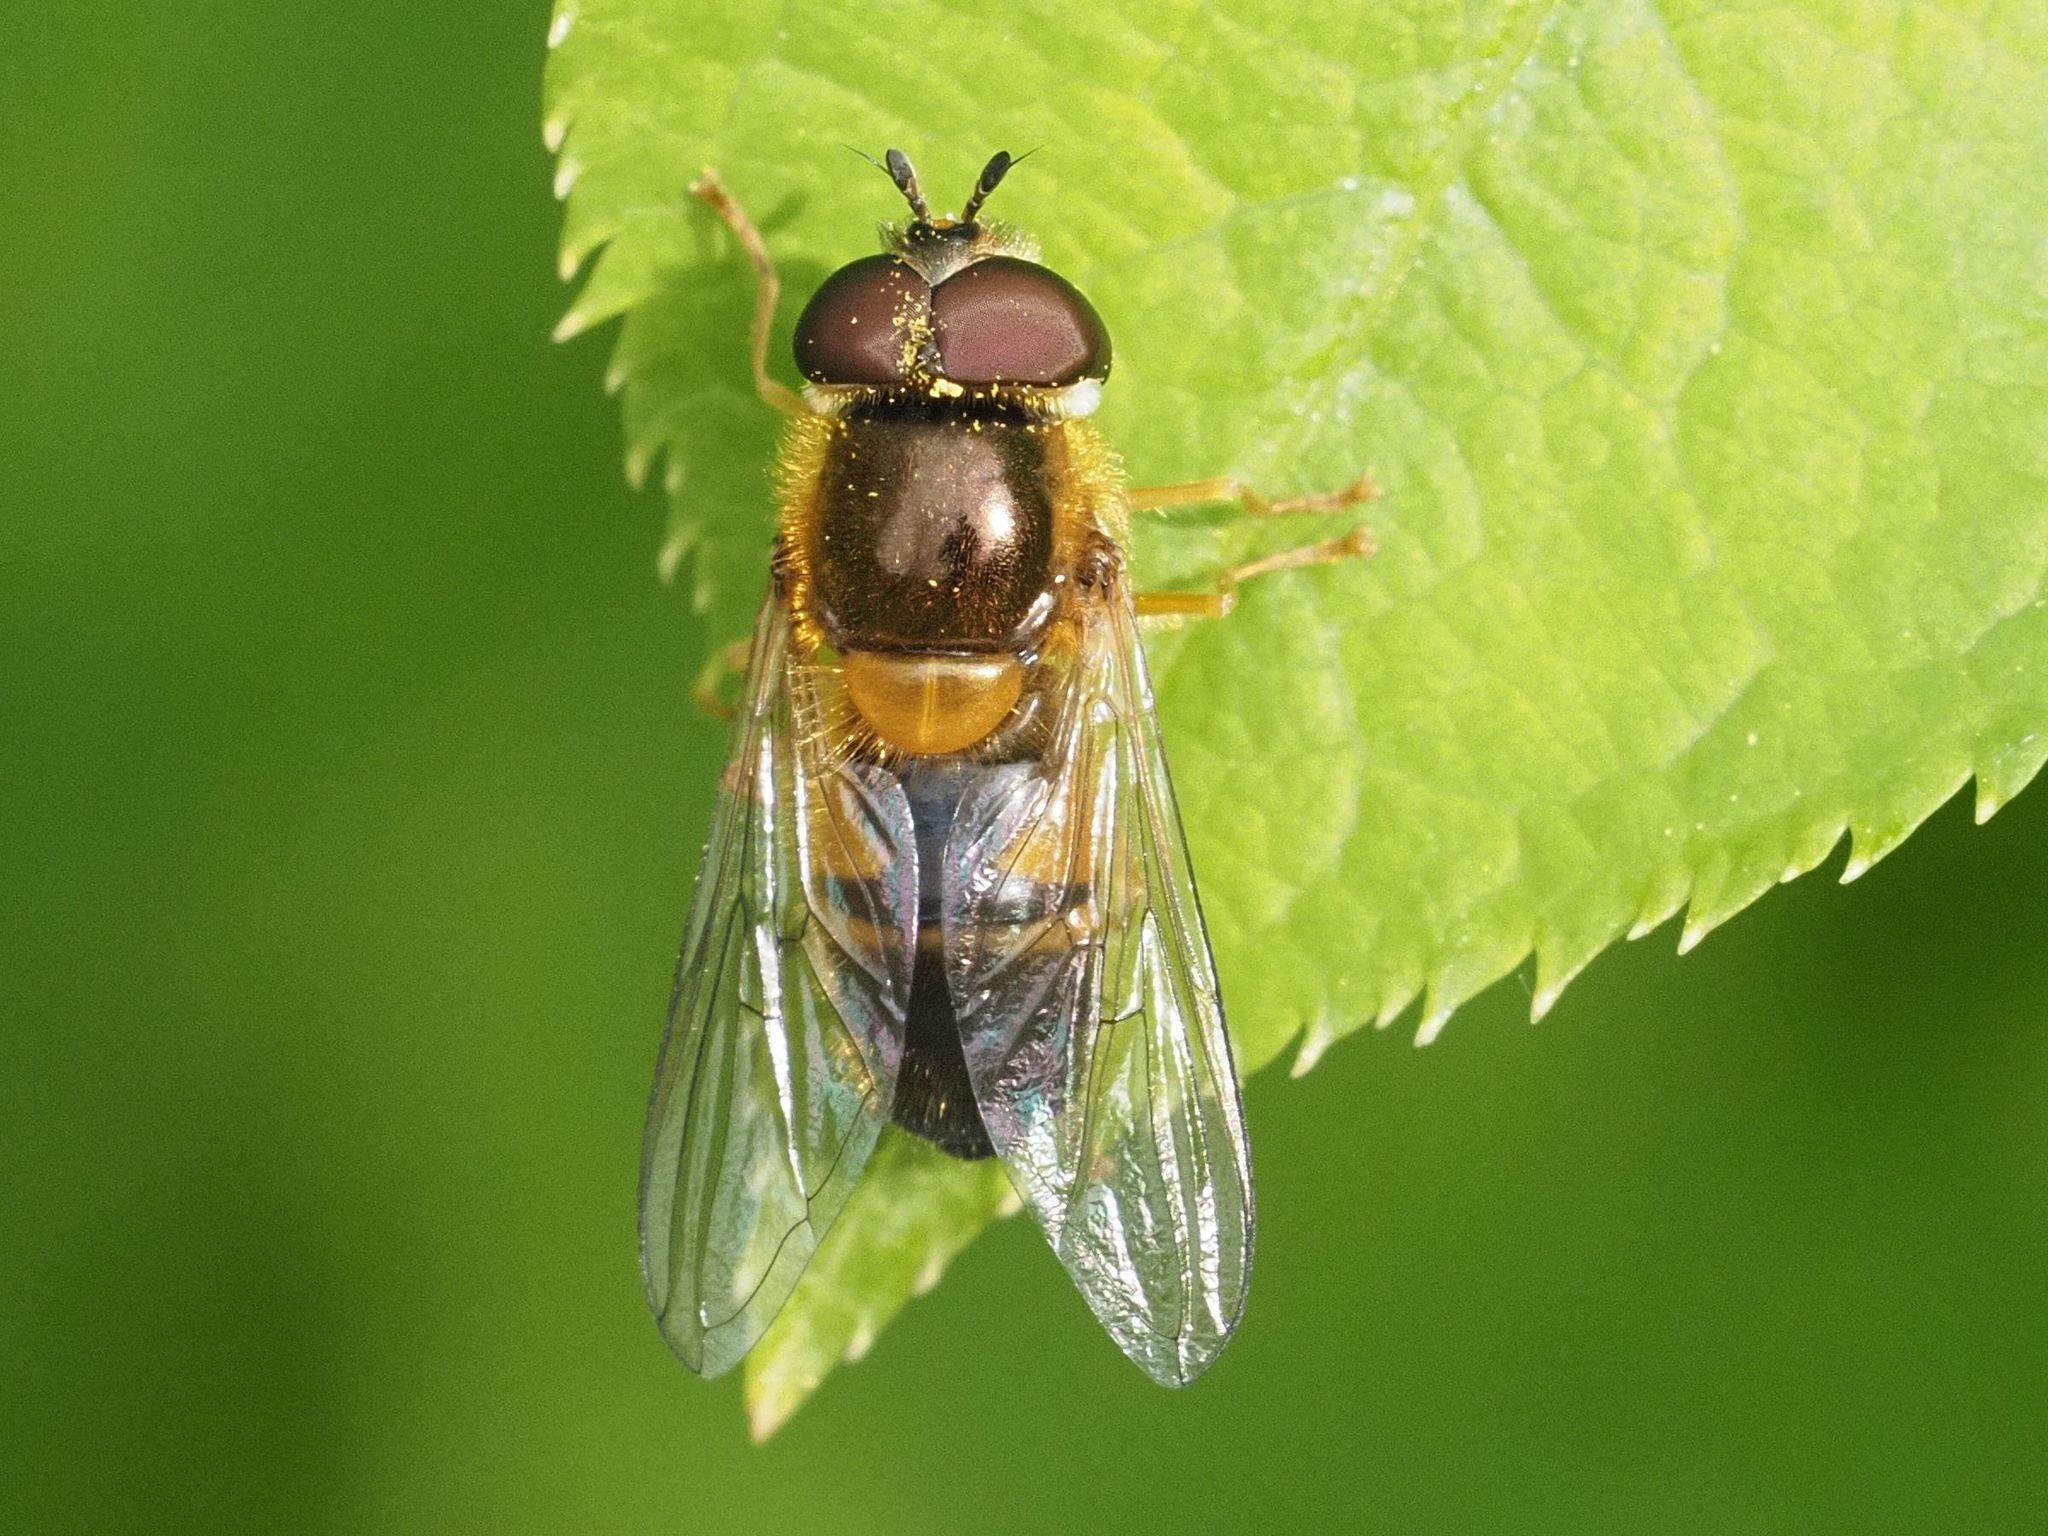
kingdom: Animalia
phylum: Arthropoda
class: Insecta
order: Diptera
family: Syrphidae
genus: Epistrophe
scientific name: Epistrophe eligans
